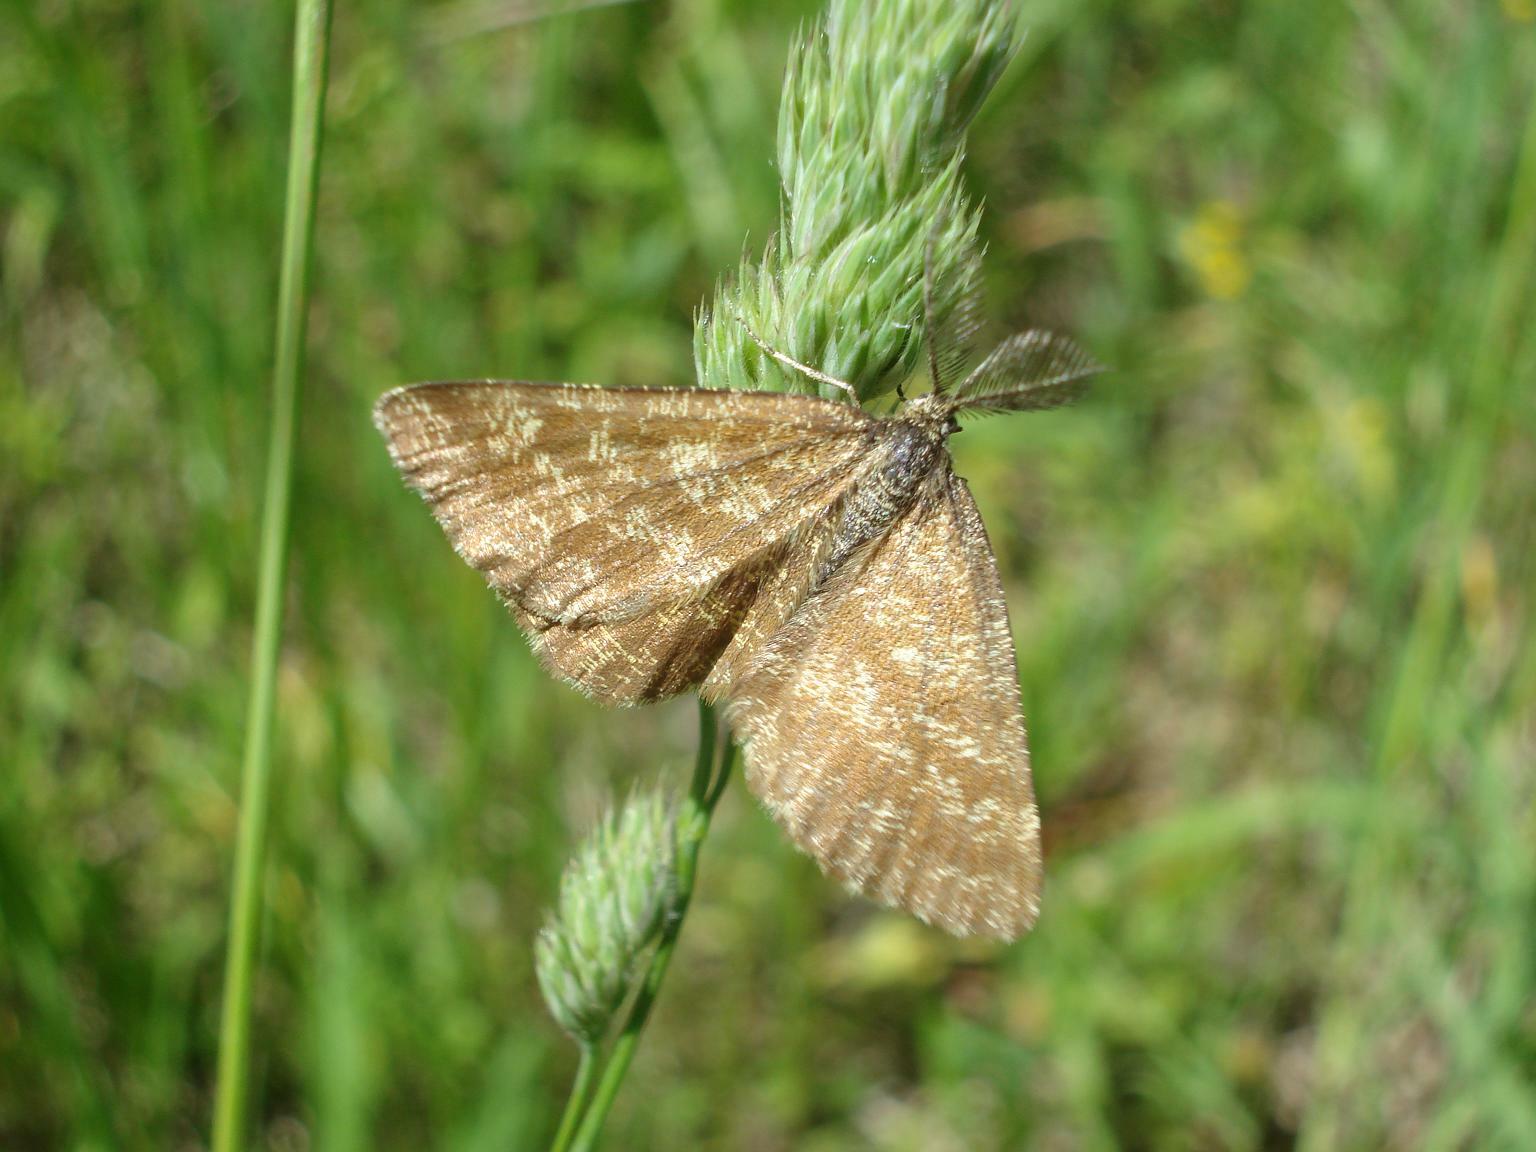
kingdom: Animalia
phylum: Arthropoda
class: Insecta
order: Lepidoptera
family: Geometridae
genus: Ematurga
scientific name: Ematurga atomaria
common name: Common heath
